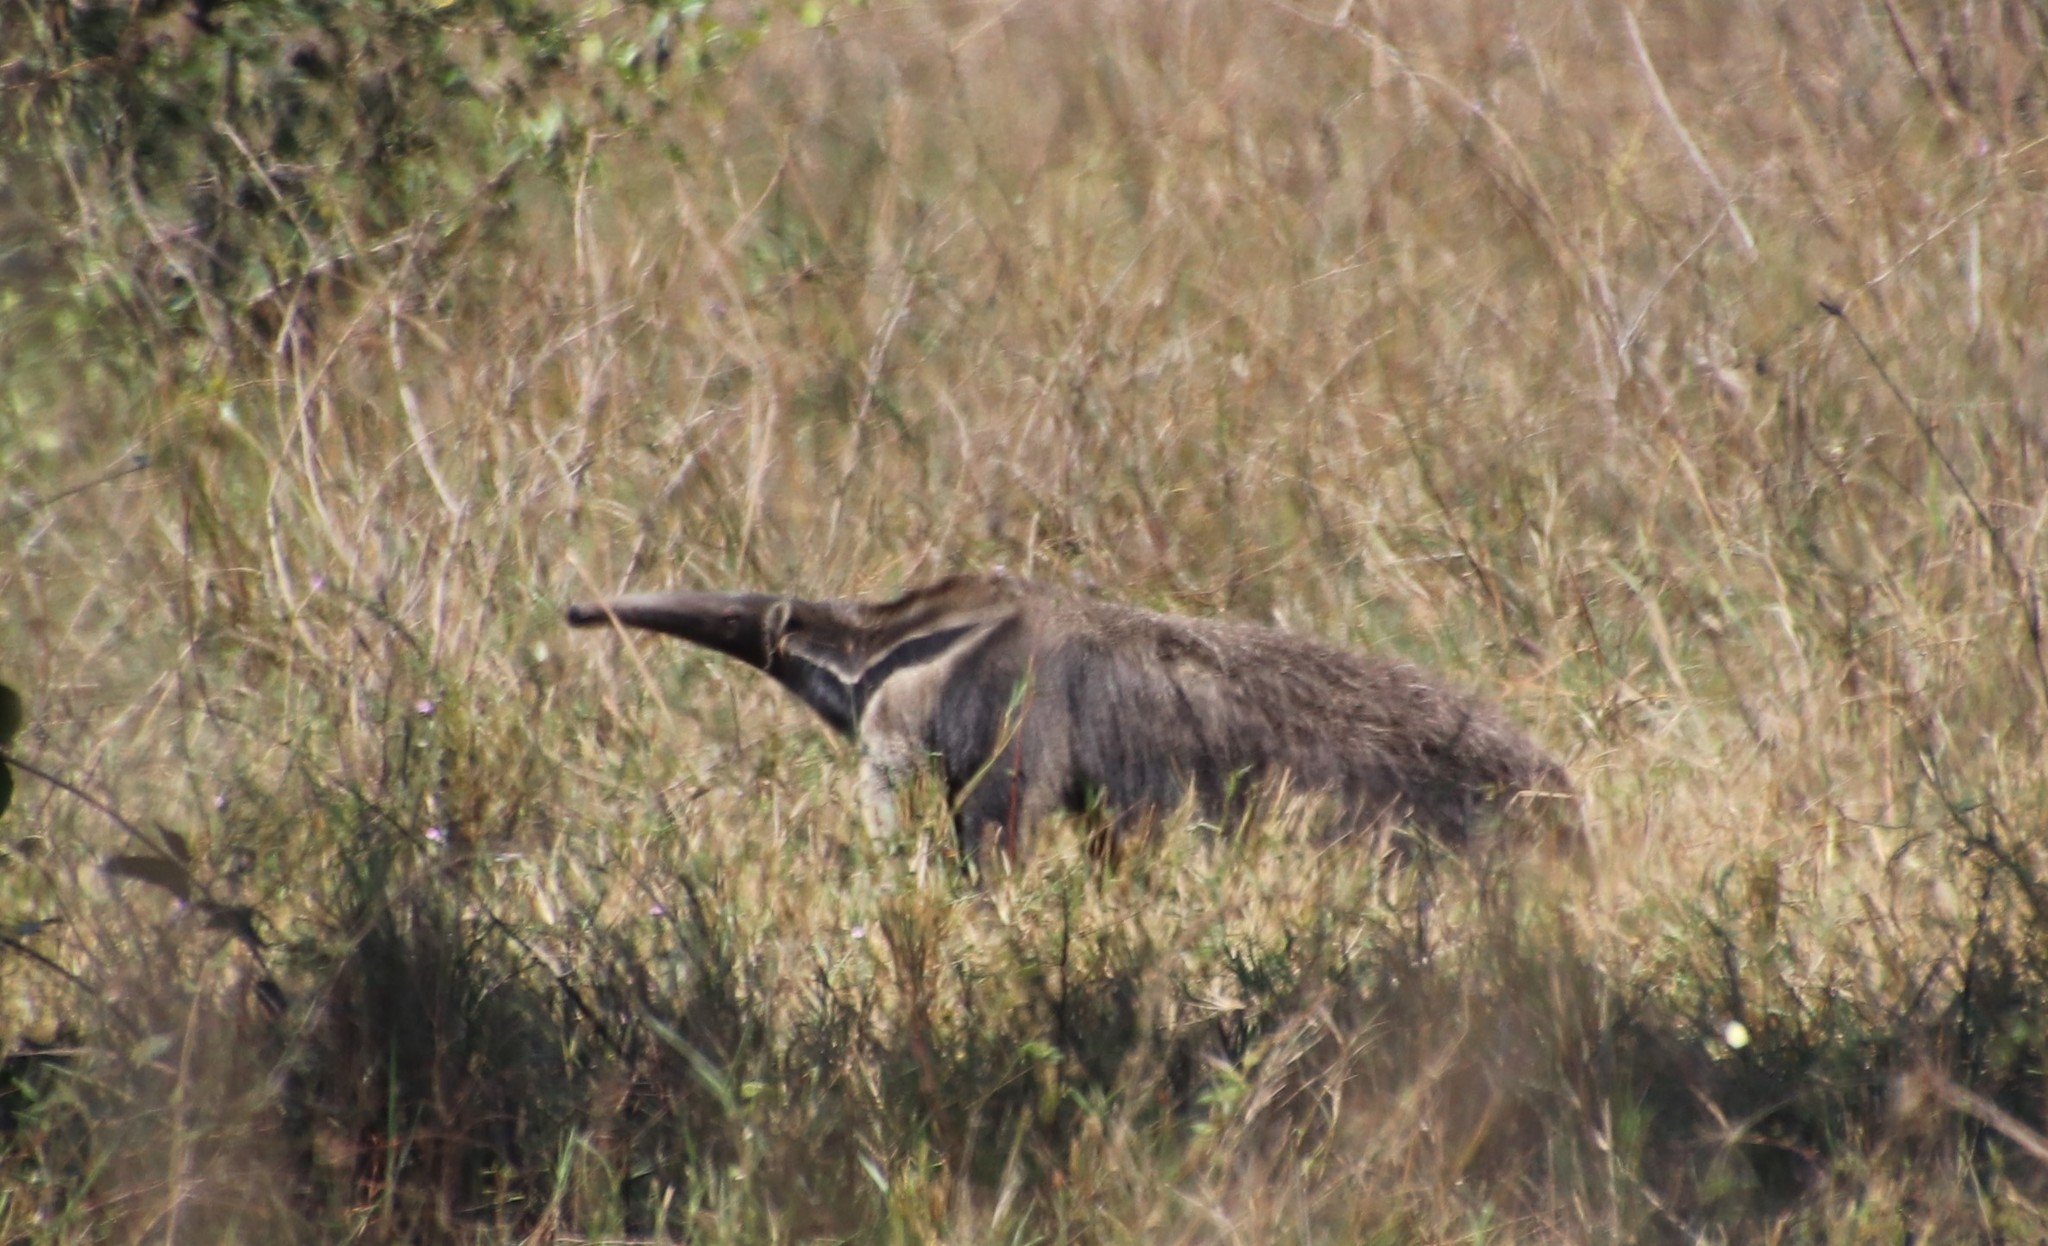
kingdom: Animalia
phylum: Chordata
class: Mammalia
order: Pilosa
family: Myrmecophagidae
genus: Myrmecophaga
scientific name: Myrmecophaga tridactyla
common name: Giant anteater
